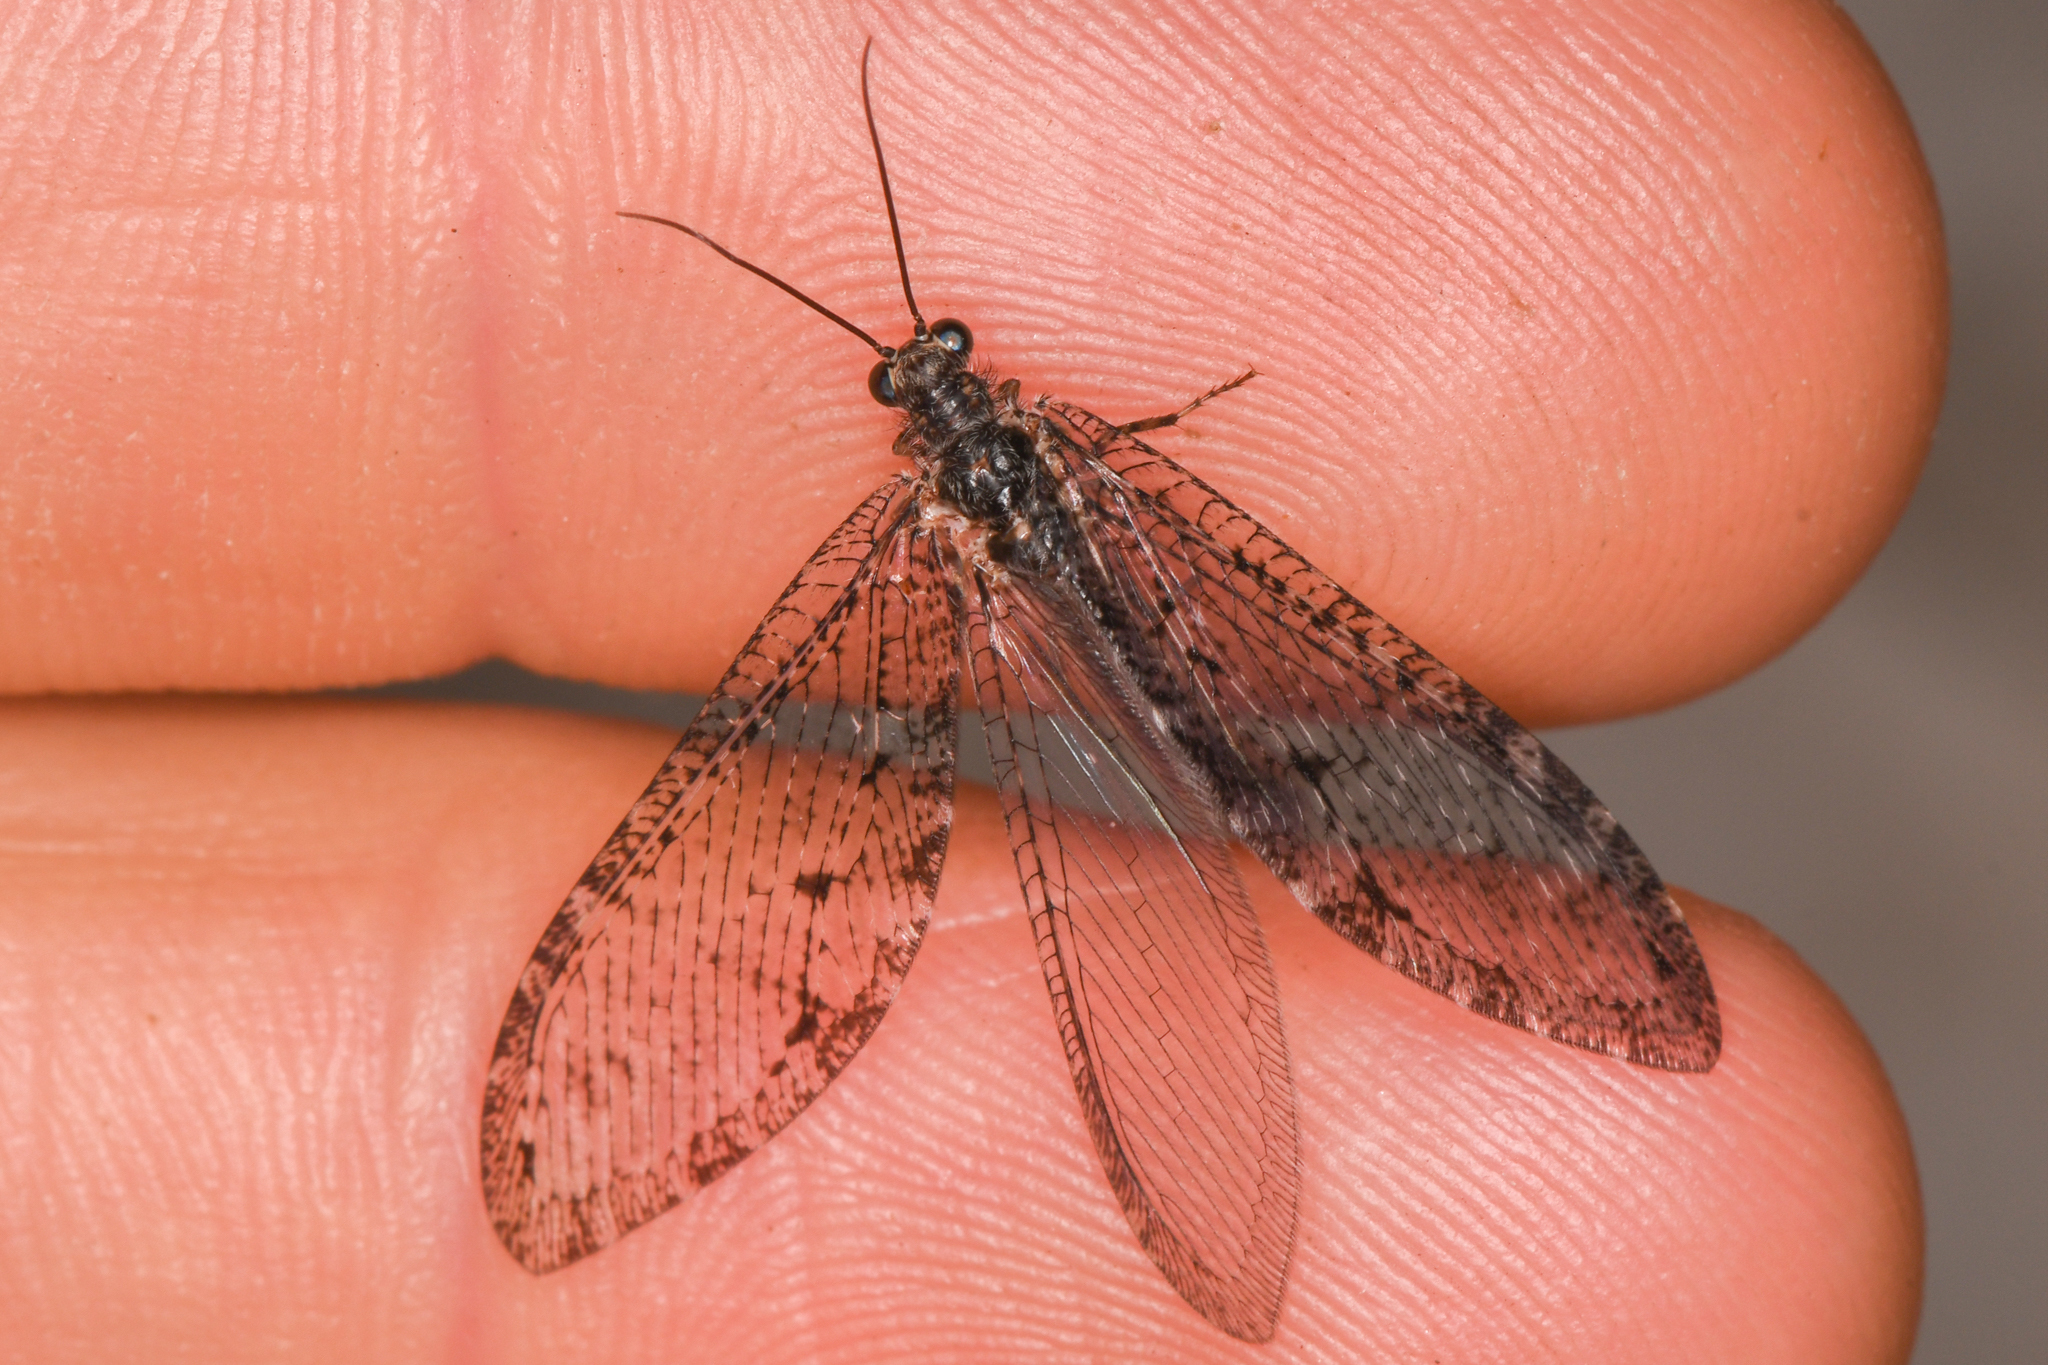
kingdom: Animalia
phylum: Arthropoda
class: Insecta
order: Neuroptera
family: Ithonidae
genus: Polystoechotes
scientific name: Polystoechotes punctata
